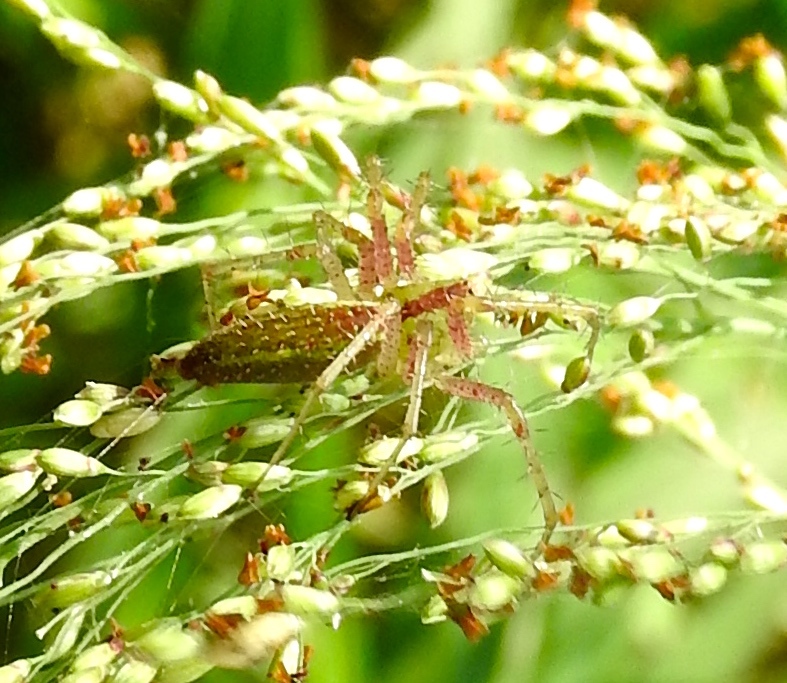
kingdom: Animalia
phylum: Arthropoda
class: Arachnida
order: Araneae
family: Oxyopidae
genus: Peucetia
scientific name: Peucetia
